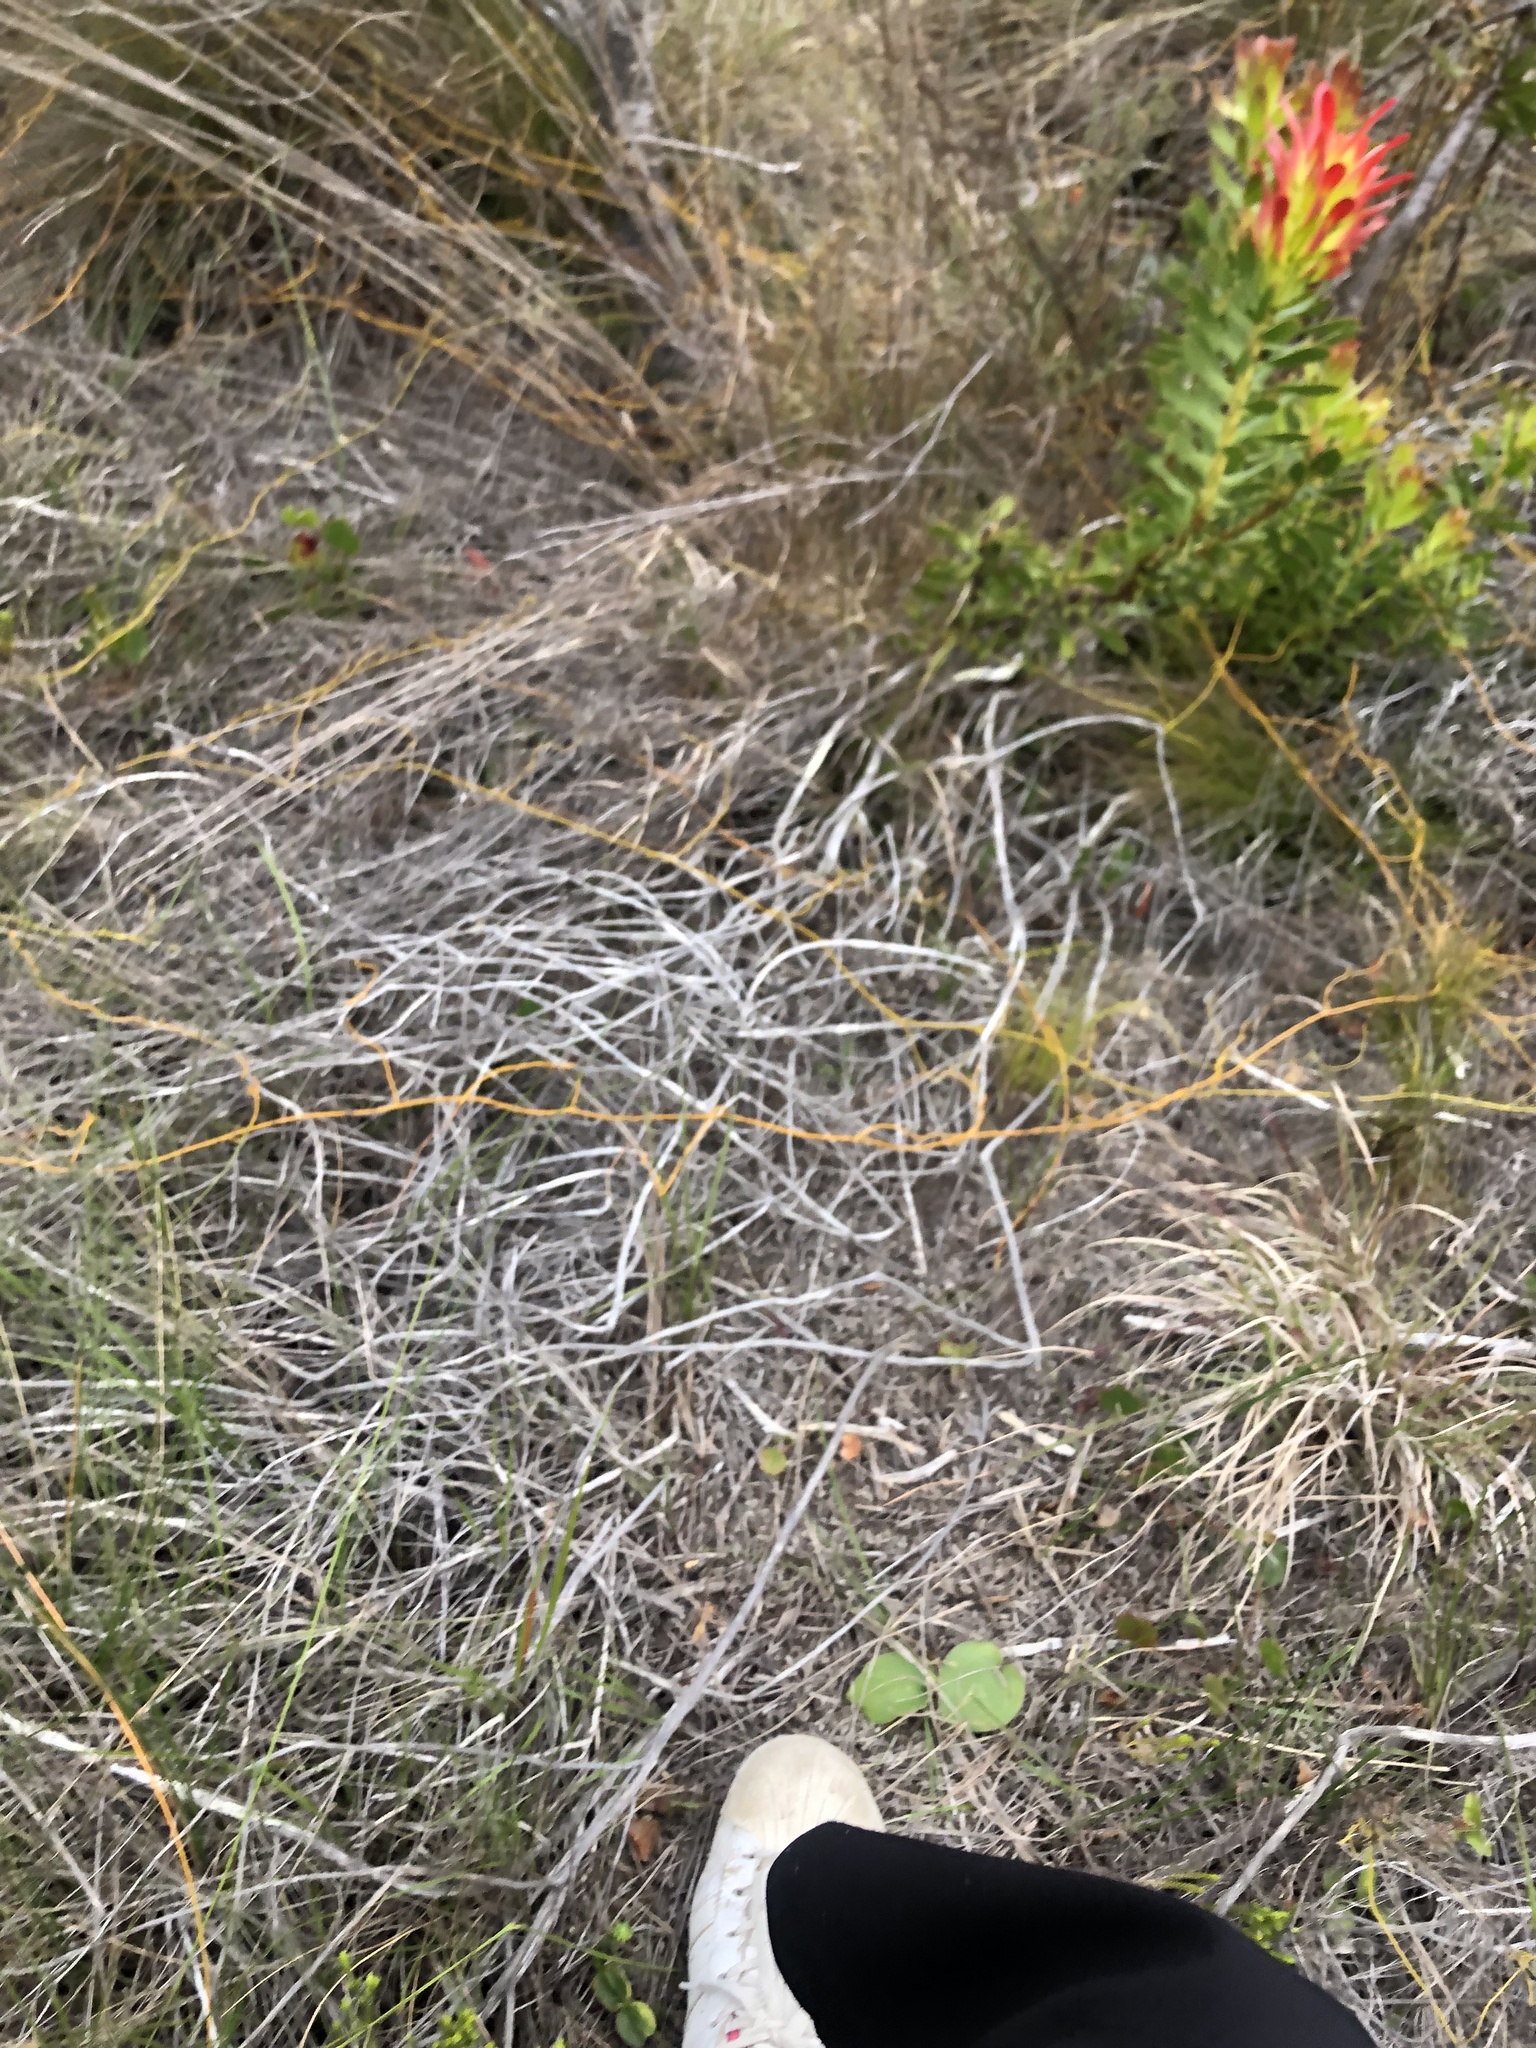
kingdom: Plantae
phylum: Tracheophyta
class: Magnoliopsida
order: Proteales
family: Proteaceae
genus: Mimetes
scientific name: Mimetes cucullatus
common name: Common pagoda
